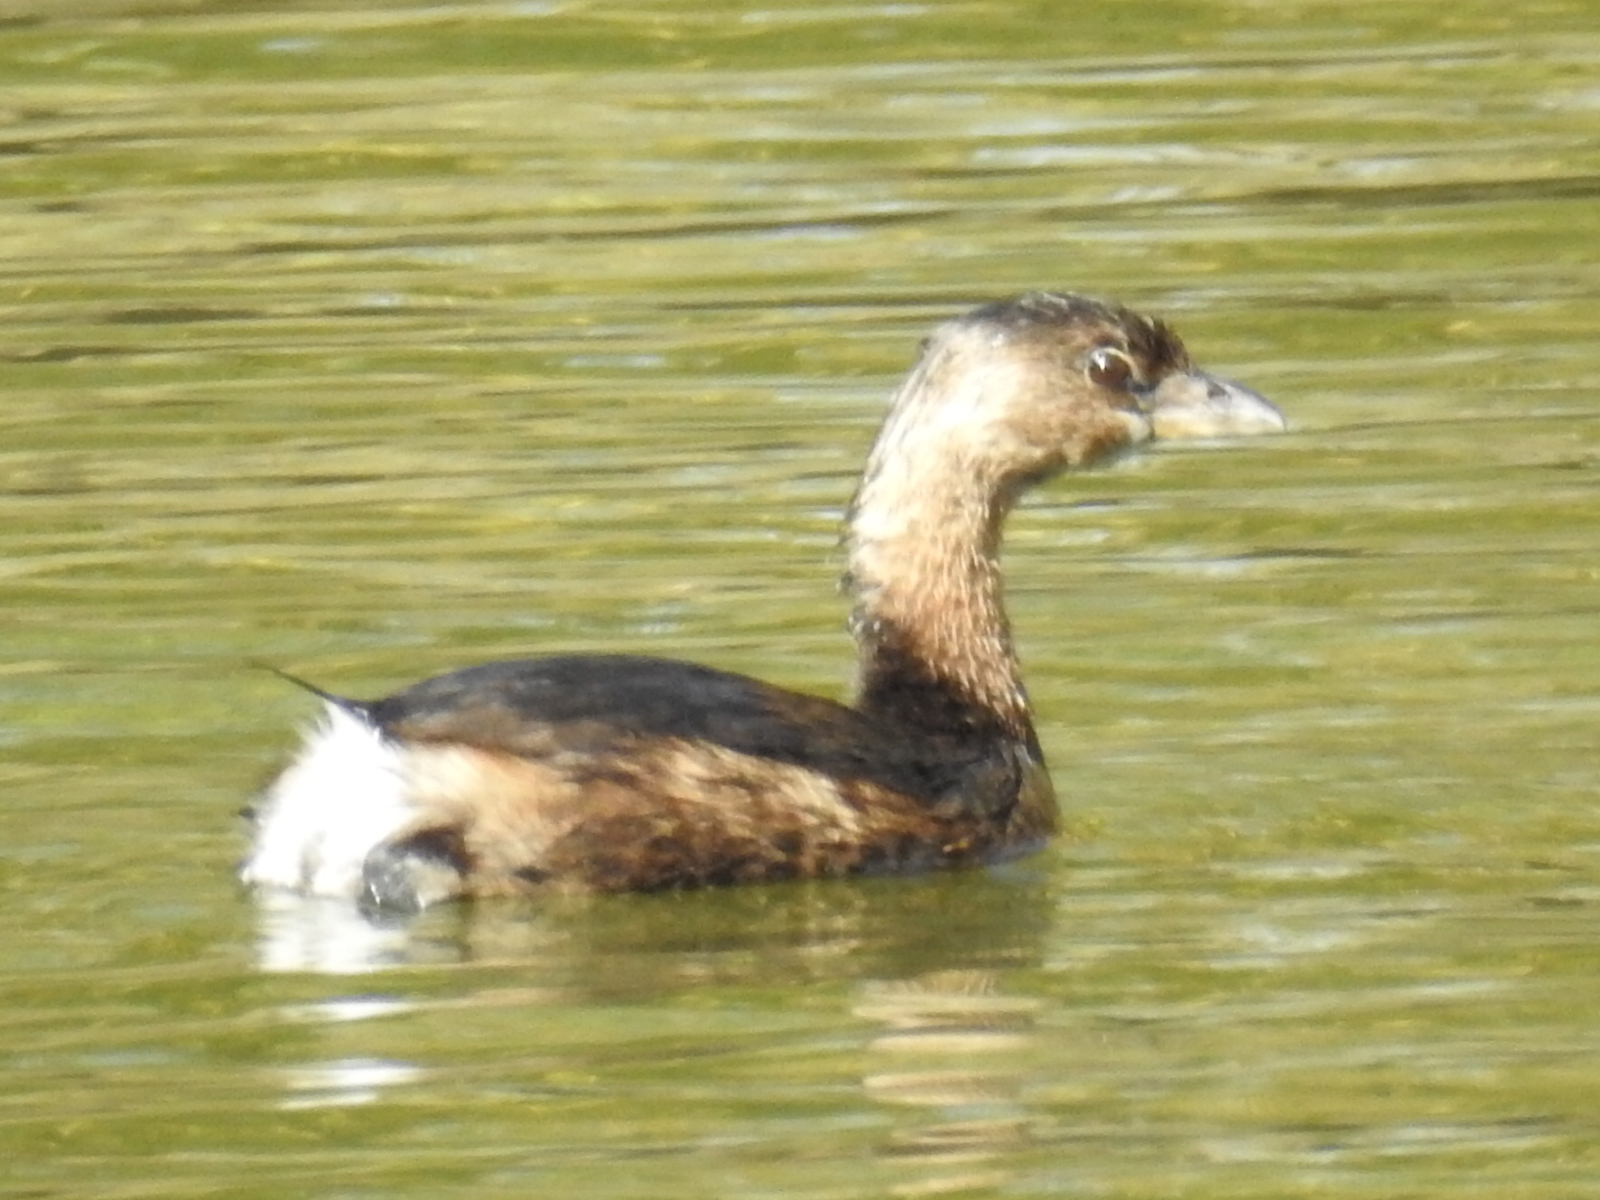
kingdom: Animalia
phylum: Chordata
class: Aves
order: Podicipediformes
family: Podicipedidae
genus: Podilymbus
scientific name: Podilymbus podiceps
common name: Pied-billed grebe
